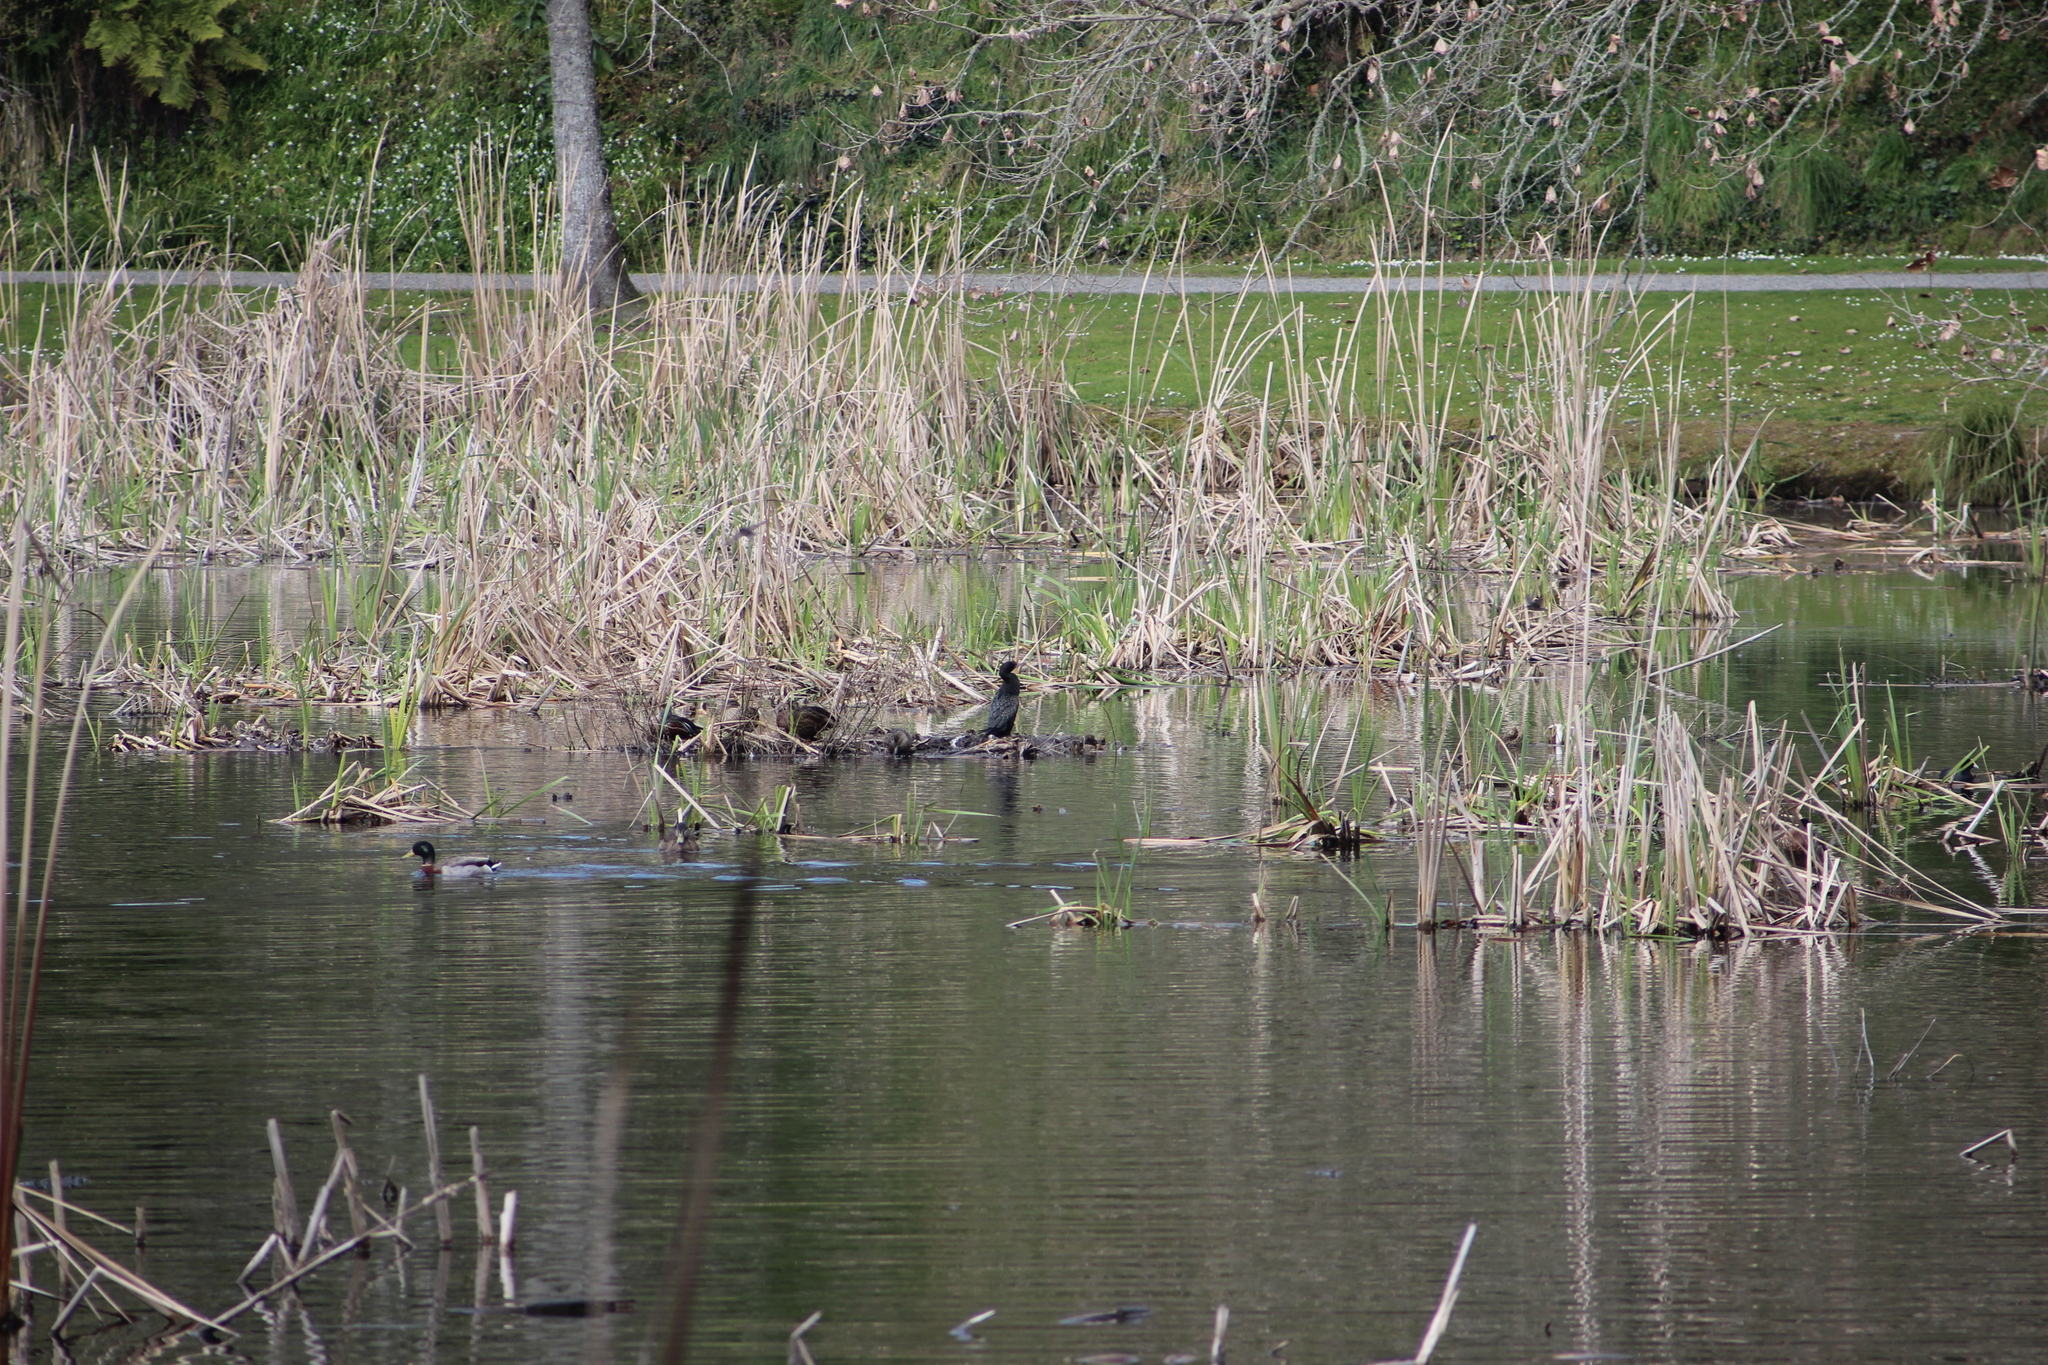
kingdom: Animalia
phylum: Chordata
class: Aves
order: Suliformes
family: Phalacrocoracidae
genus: Phalacrocorax
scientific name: Phalacrocorax sulcirostris
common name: Little black cormorant
